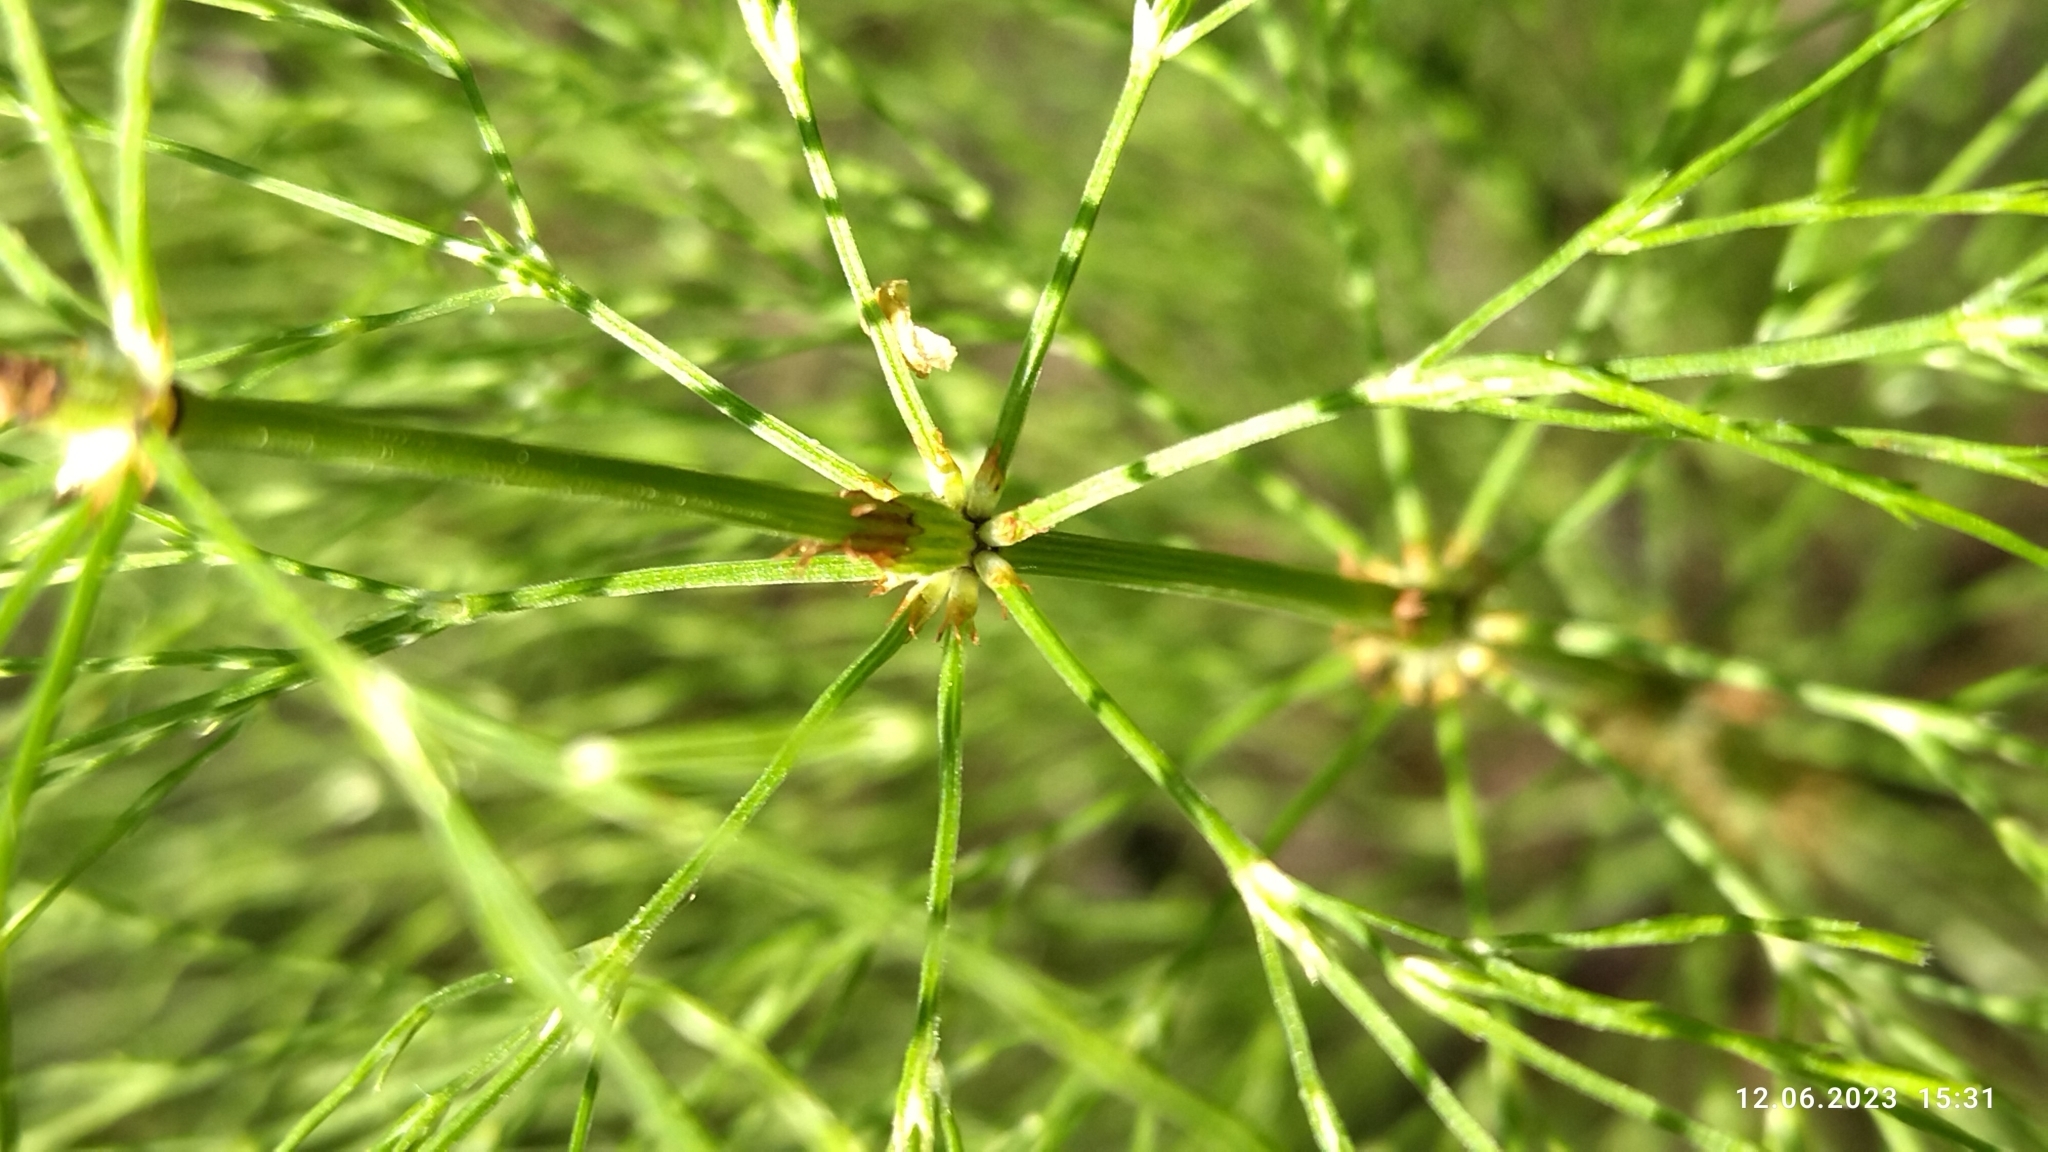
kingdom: Plantae
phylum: Tracheophyta
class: Polypodiopsida
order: Equisetales
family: Equisetaceae
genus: Equisetum
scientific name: Equisetum sylvaticum
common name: Wood horsetail
